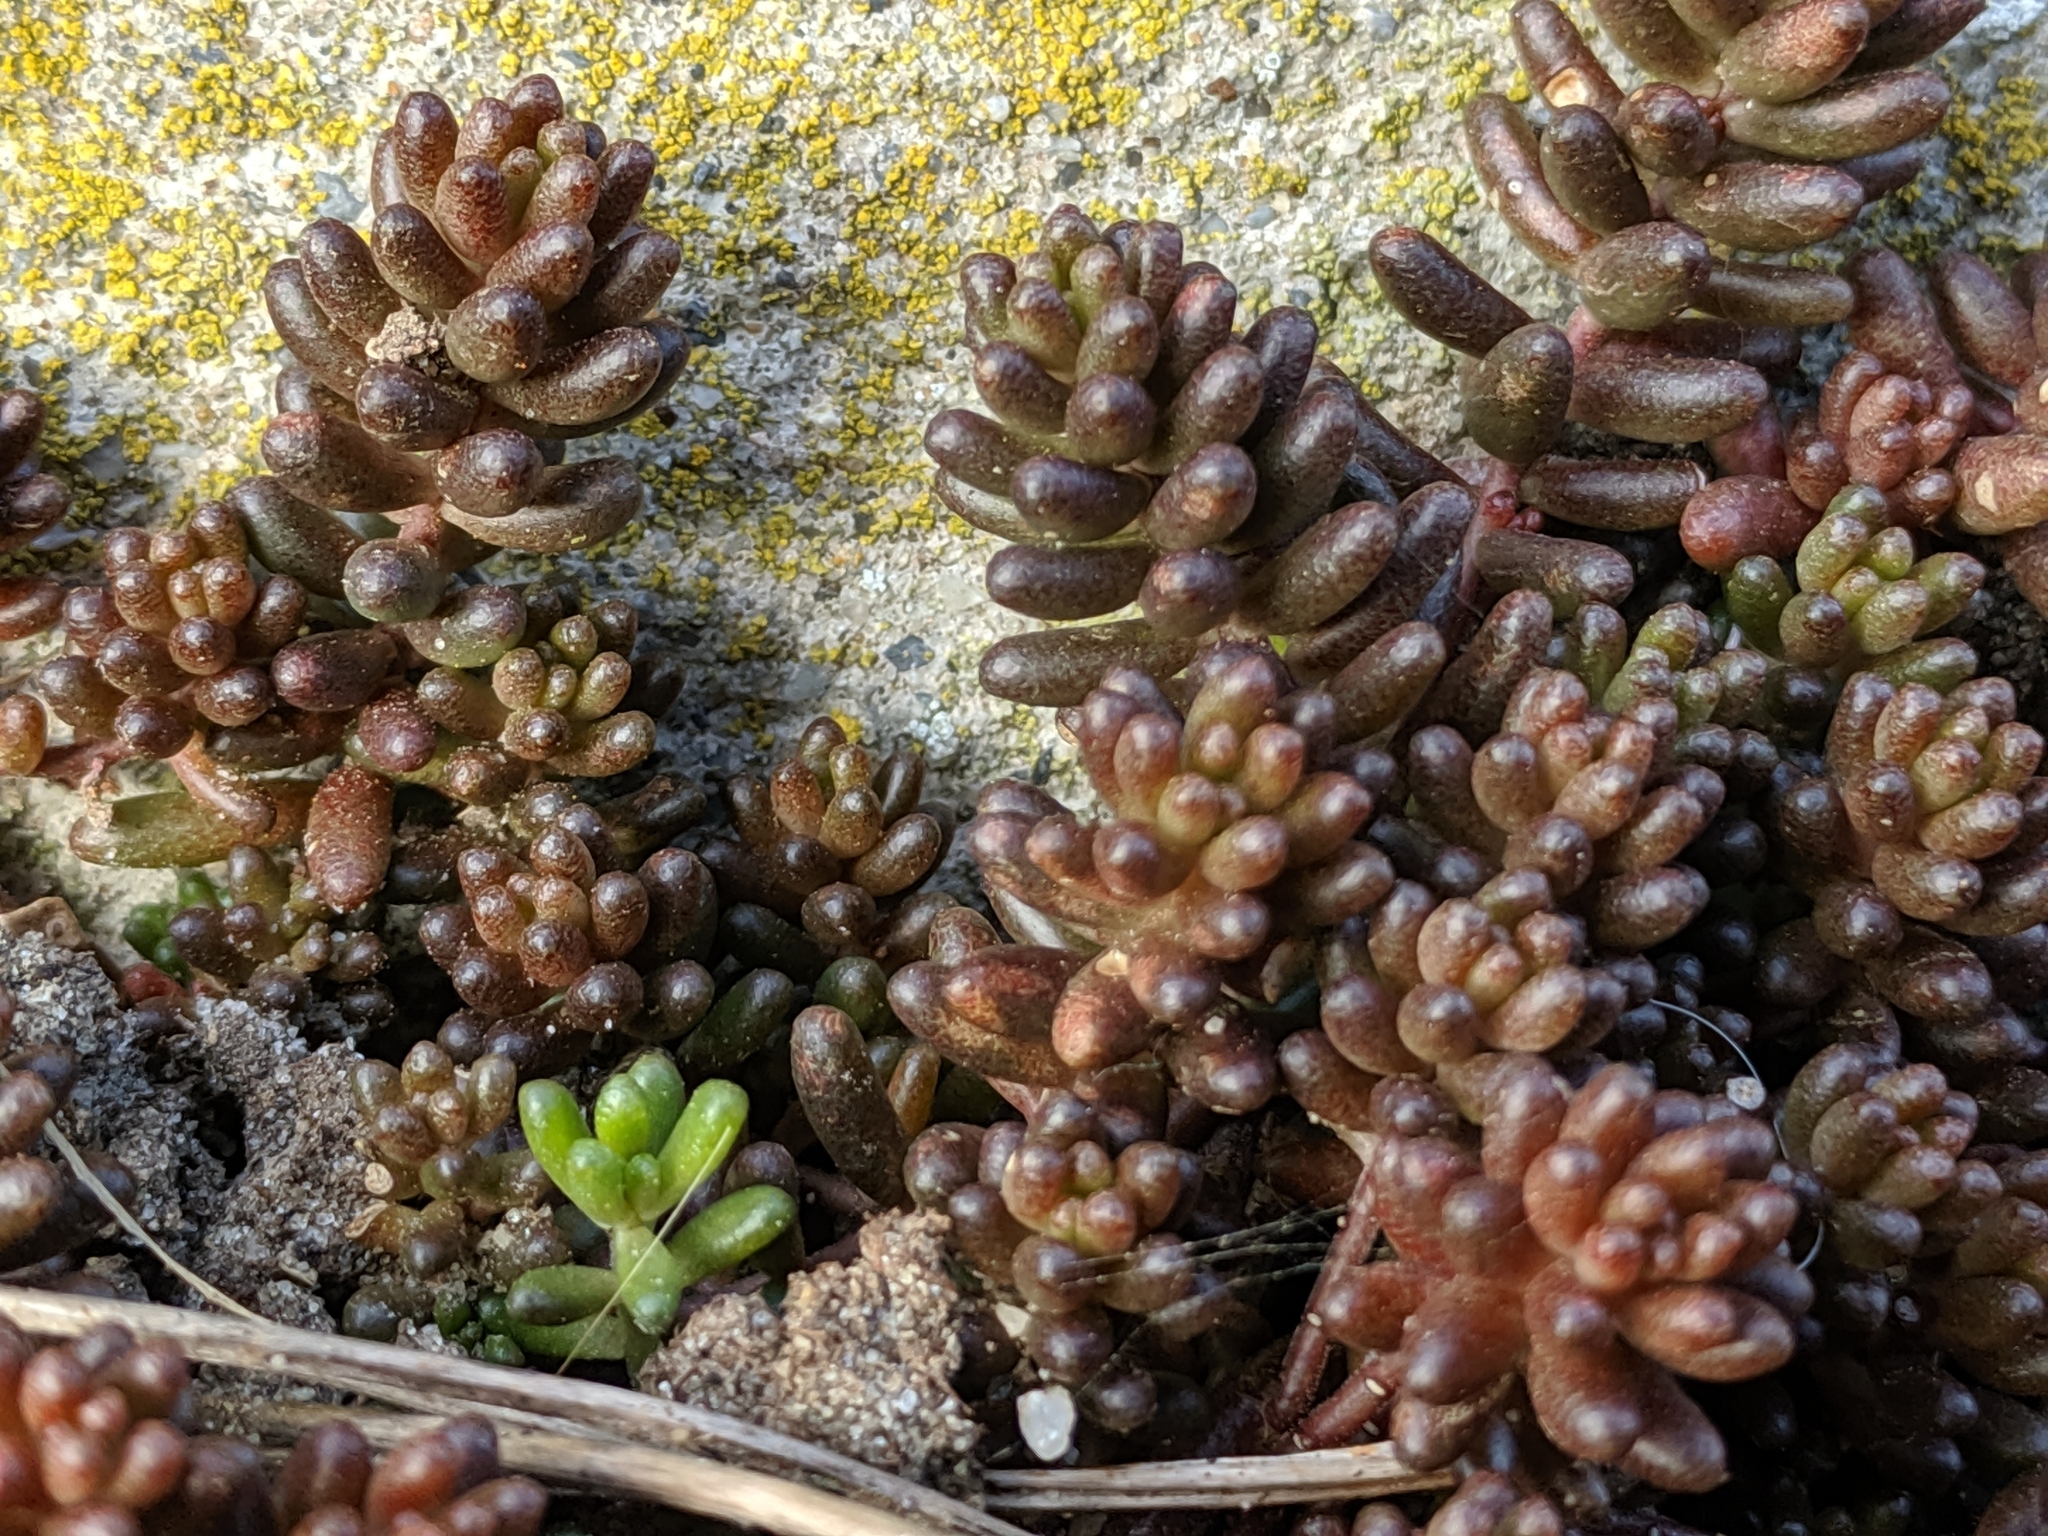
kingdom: Plantae
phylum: Tracheophyta
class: Magnoliopsida
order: Saxifragales
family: Crassulaceae
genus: Sedum
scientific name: Sedum album
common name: White stonecrop
